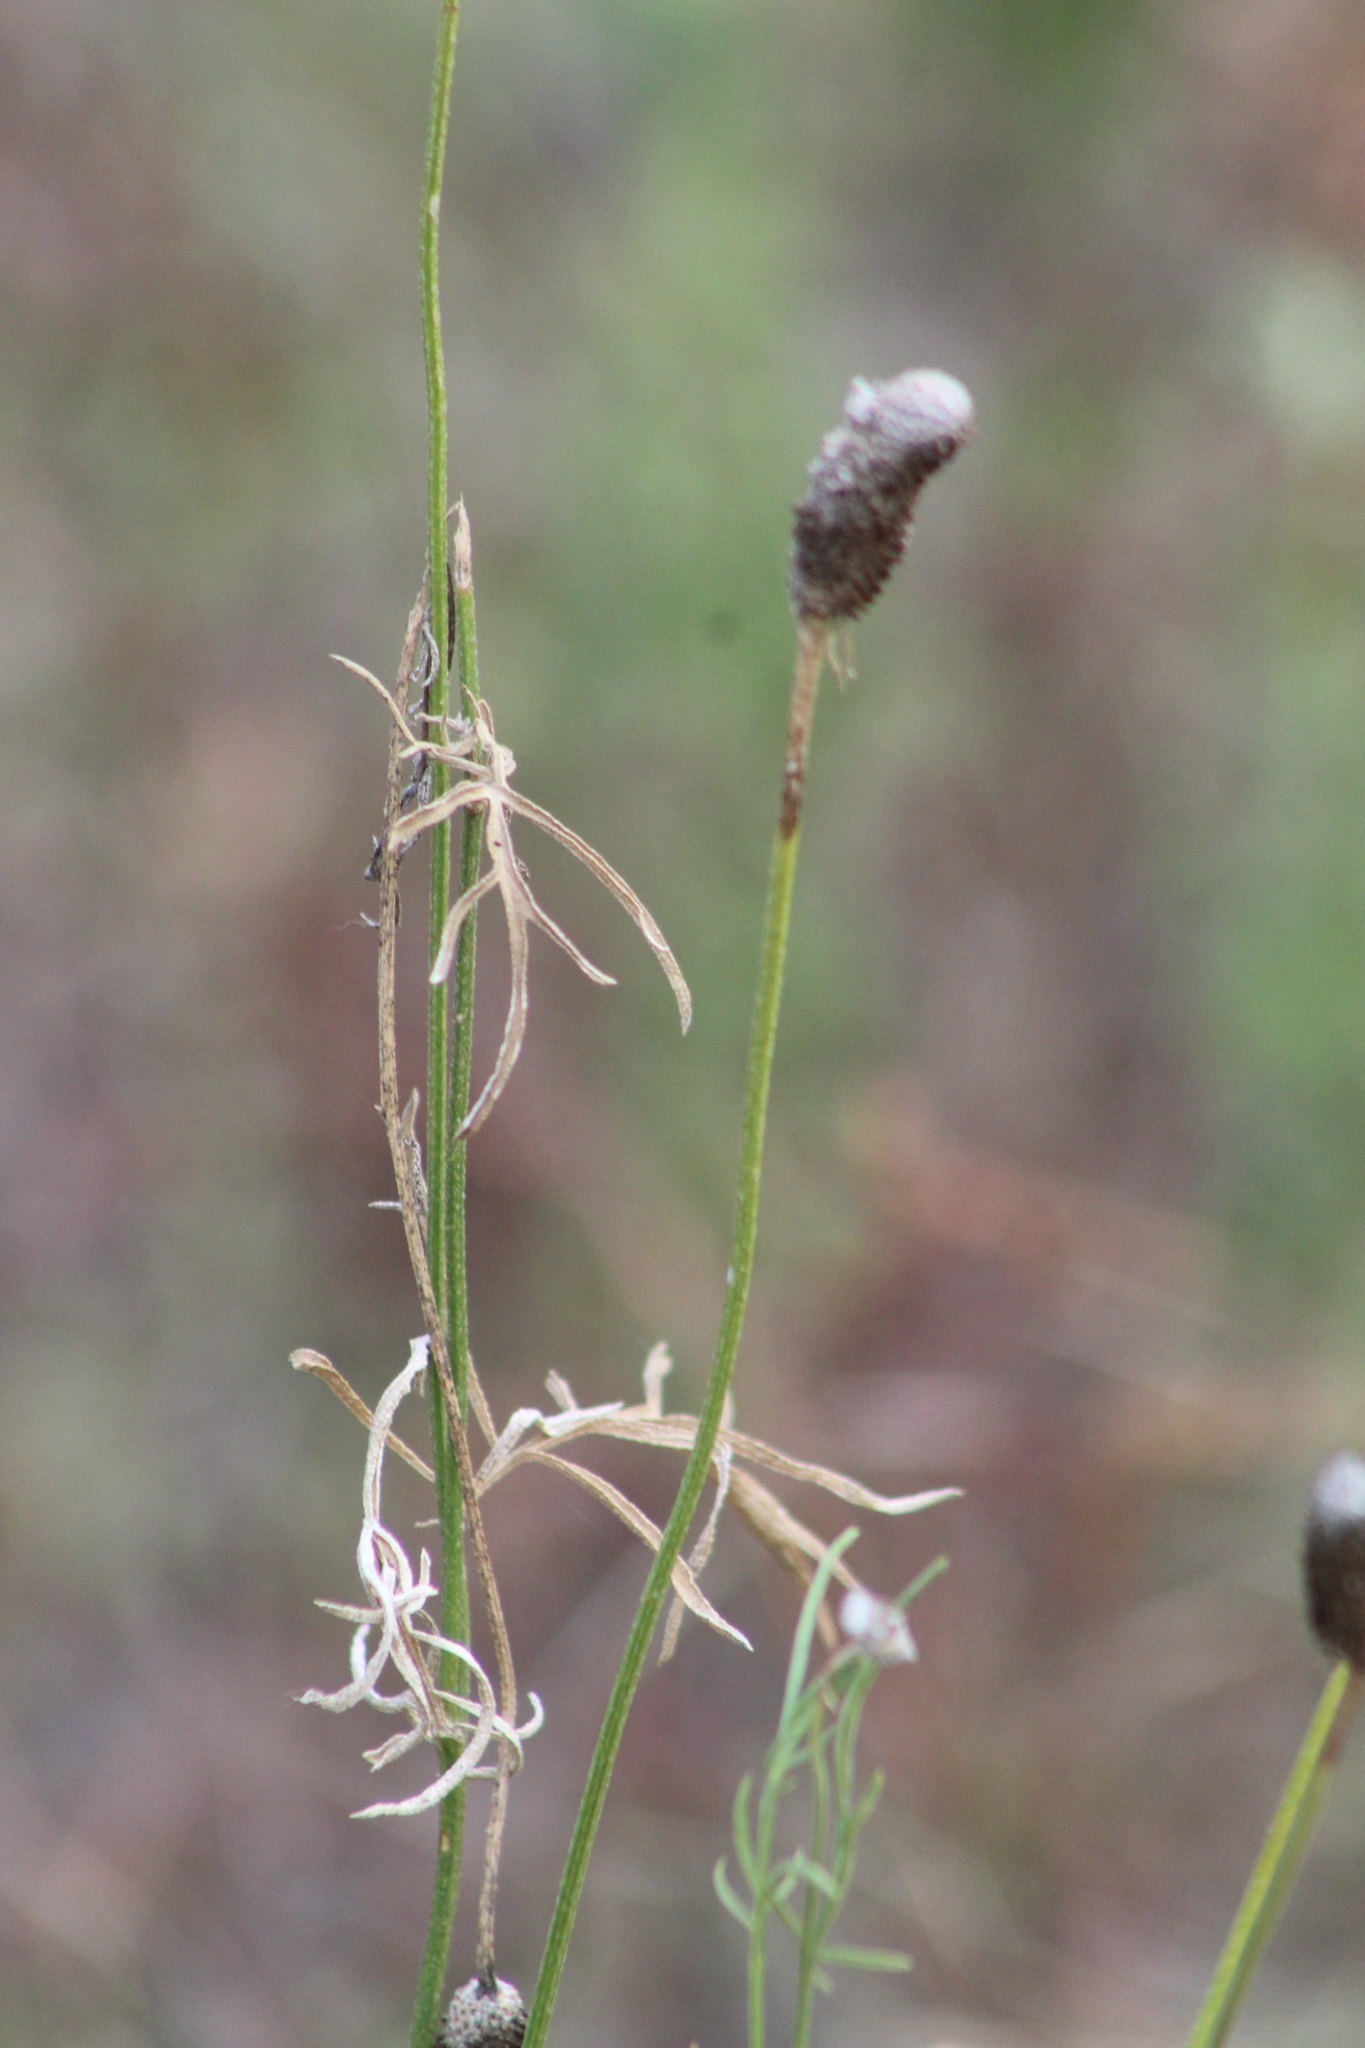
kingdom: Plantae
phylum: Tracheophyta
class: Magnoliopsida
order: Asterales
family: Asteraceae
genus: Ratibida
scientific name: Ratibida columnifera
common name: Prairie coneflower
